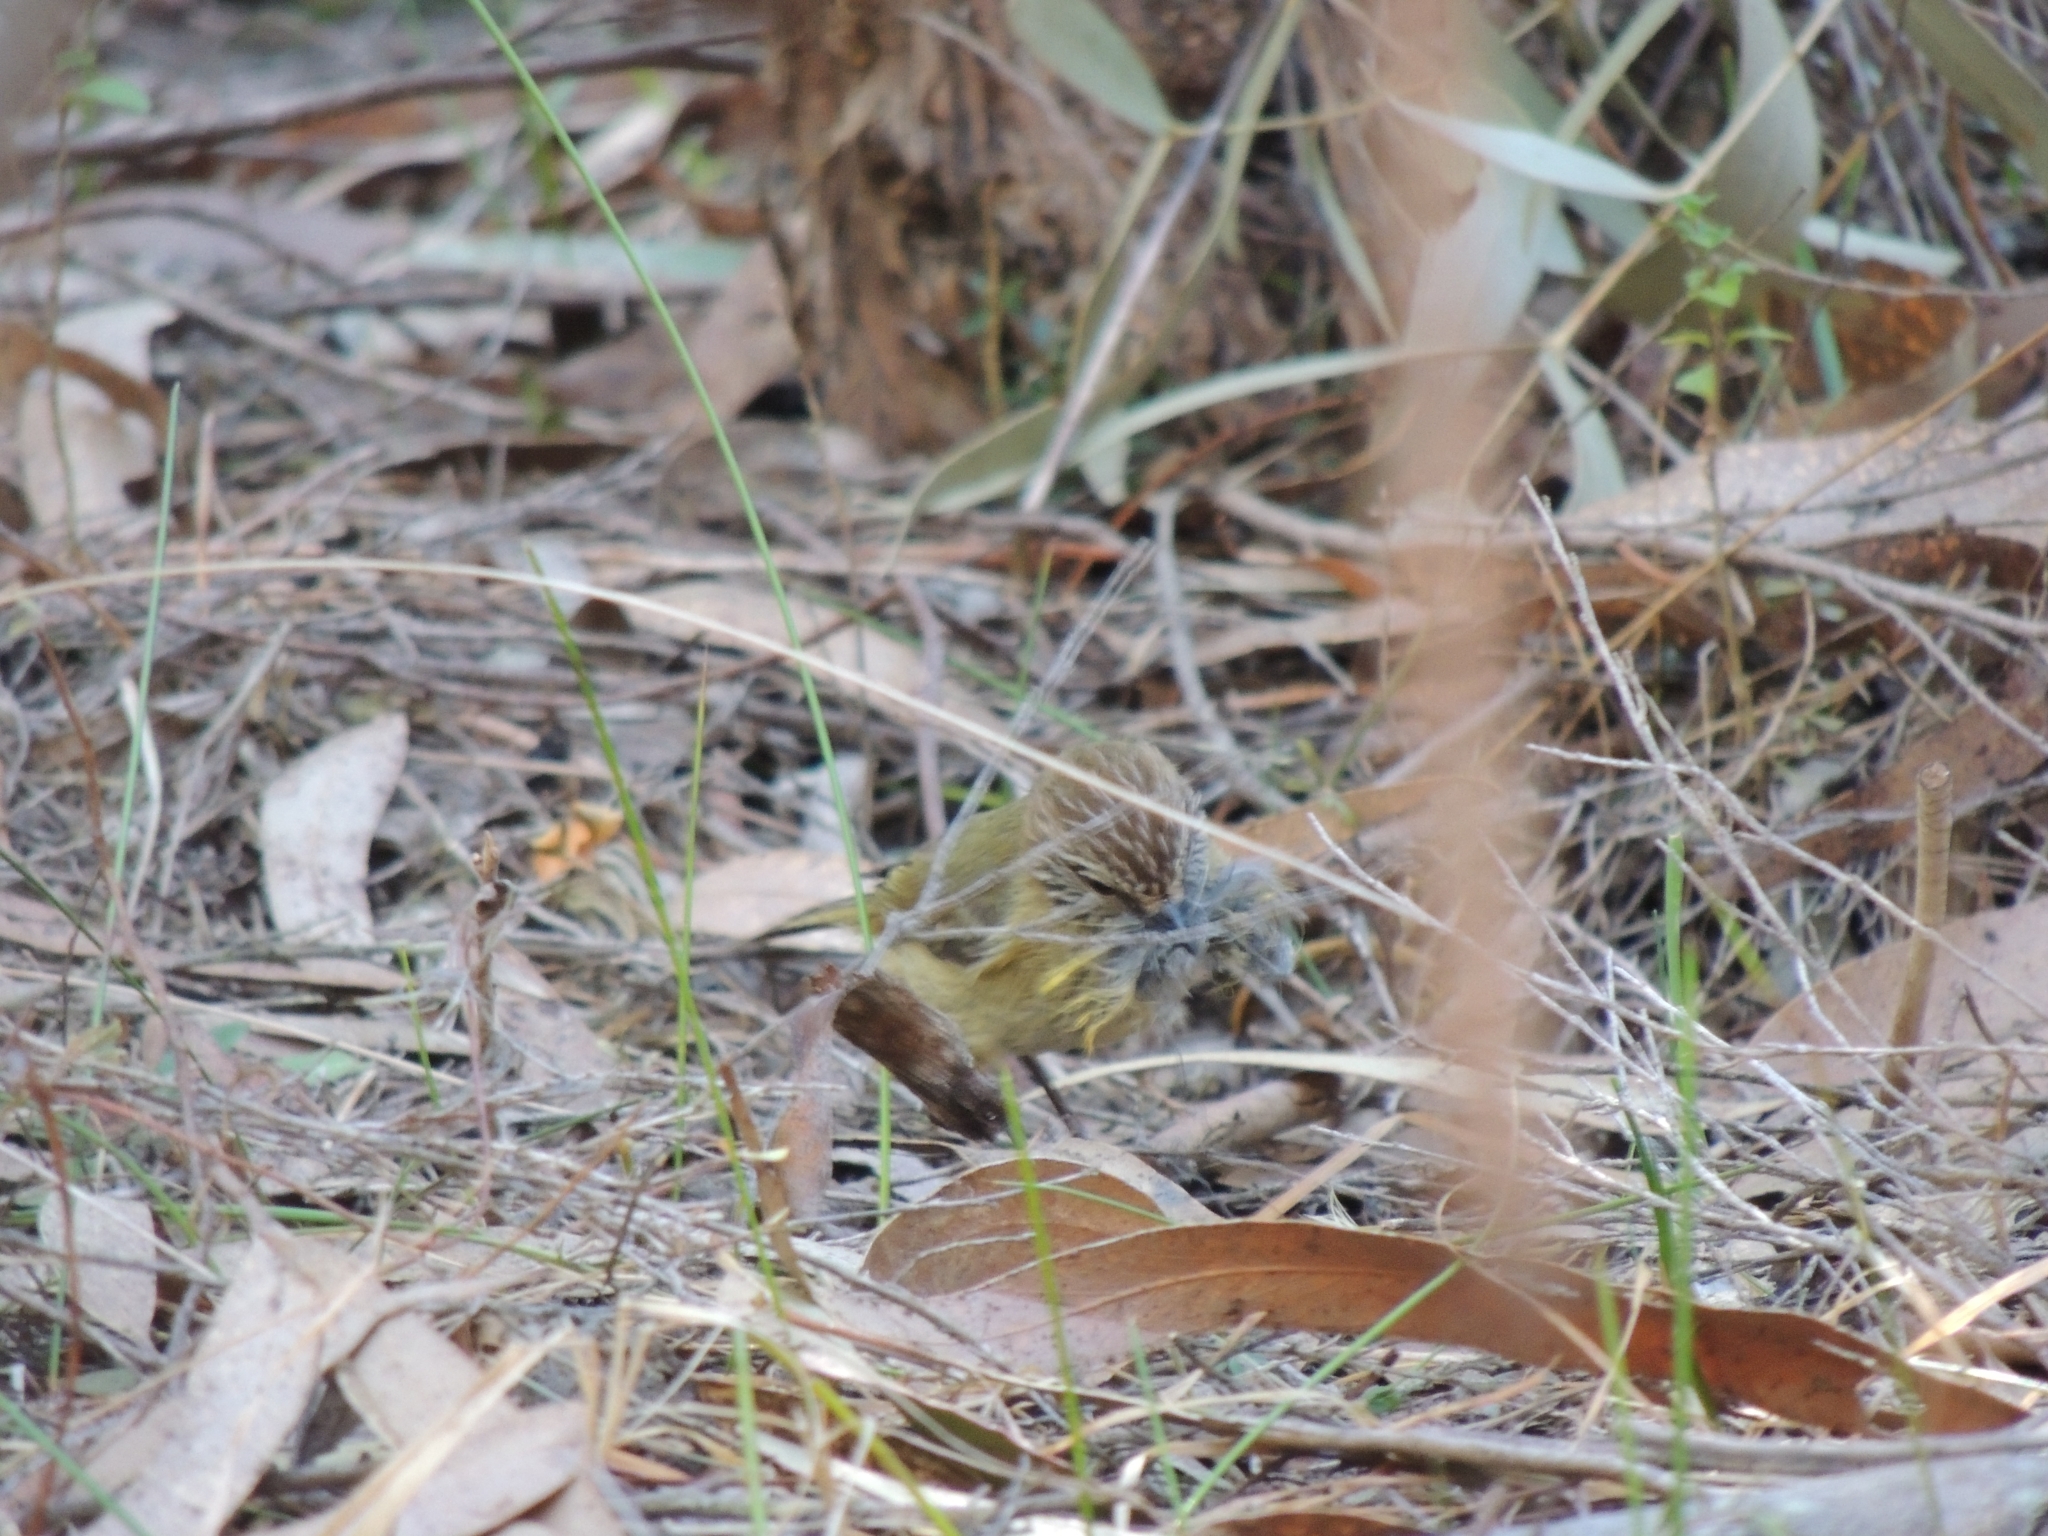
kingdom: Animalia
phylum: Chordata
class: Aves
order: Passeriformes
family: Acanthizidae
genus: Acanthiza
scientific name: Acanthiza lineata
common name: Striated thornbill
